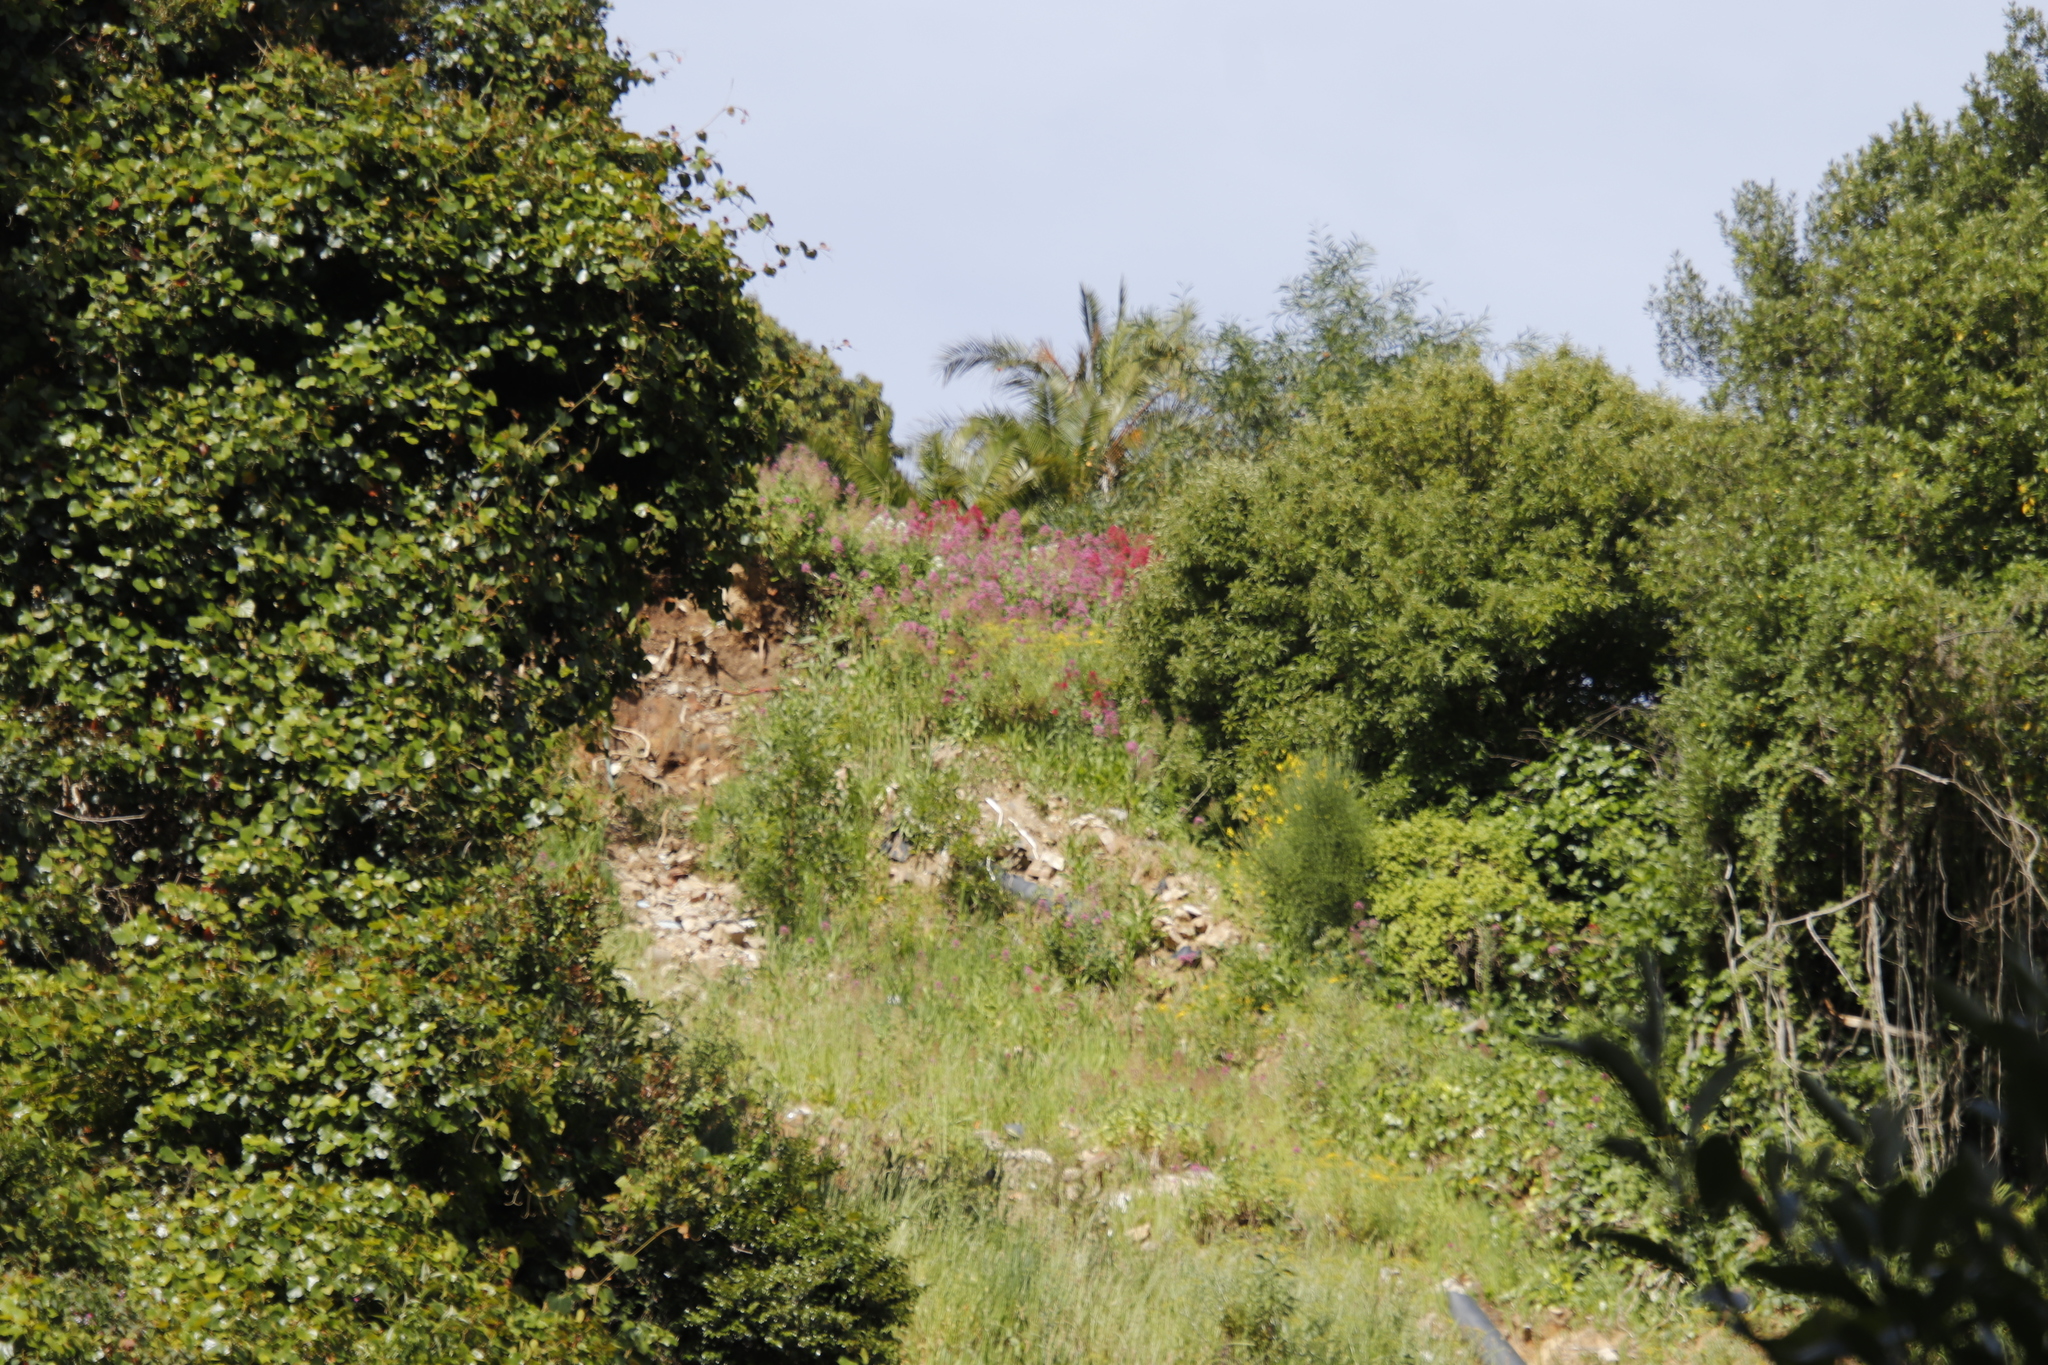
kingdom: Plantae
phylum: Tracheophyta
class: Magnoliopsida
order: Dipsacales
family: Caprifoliaceae
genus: Centranthus
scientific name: Centranthus ruber
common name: Red valerian
